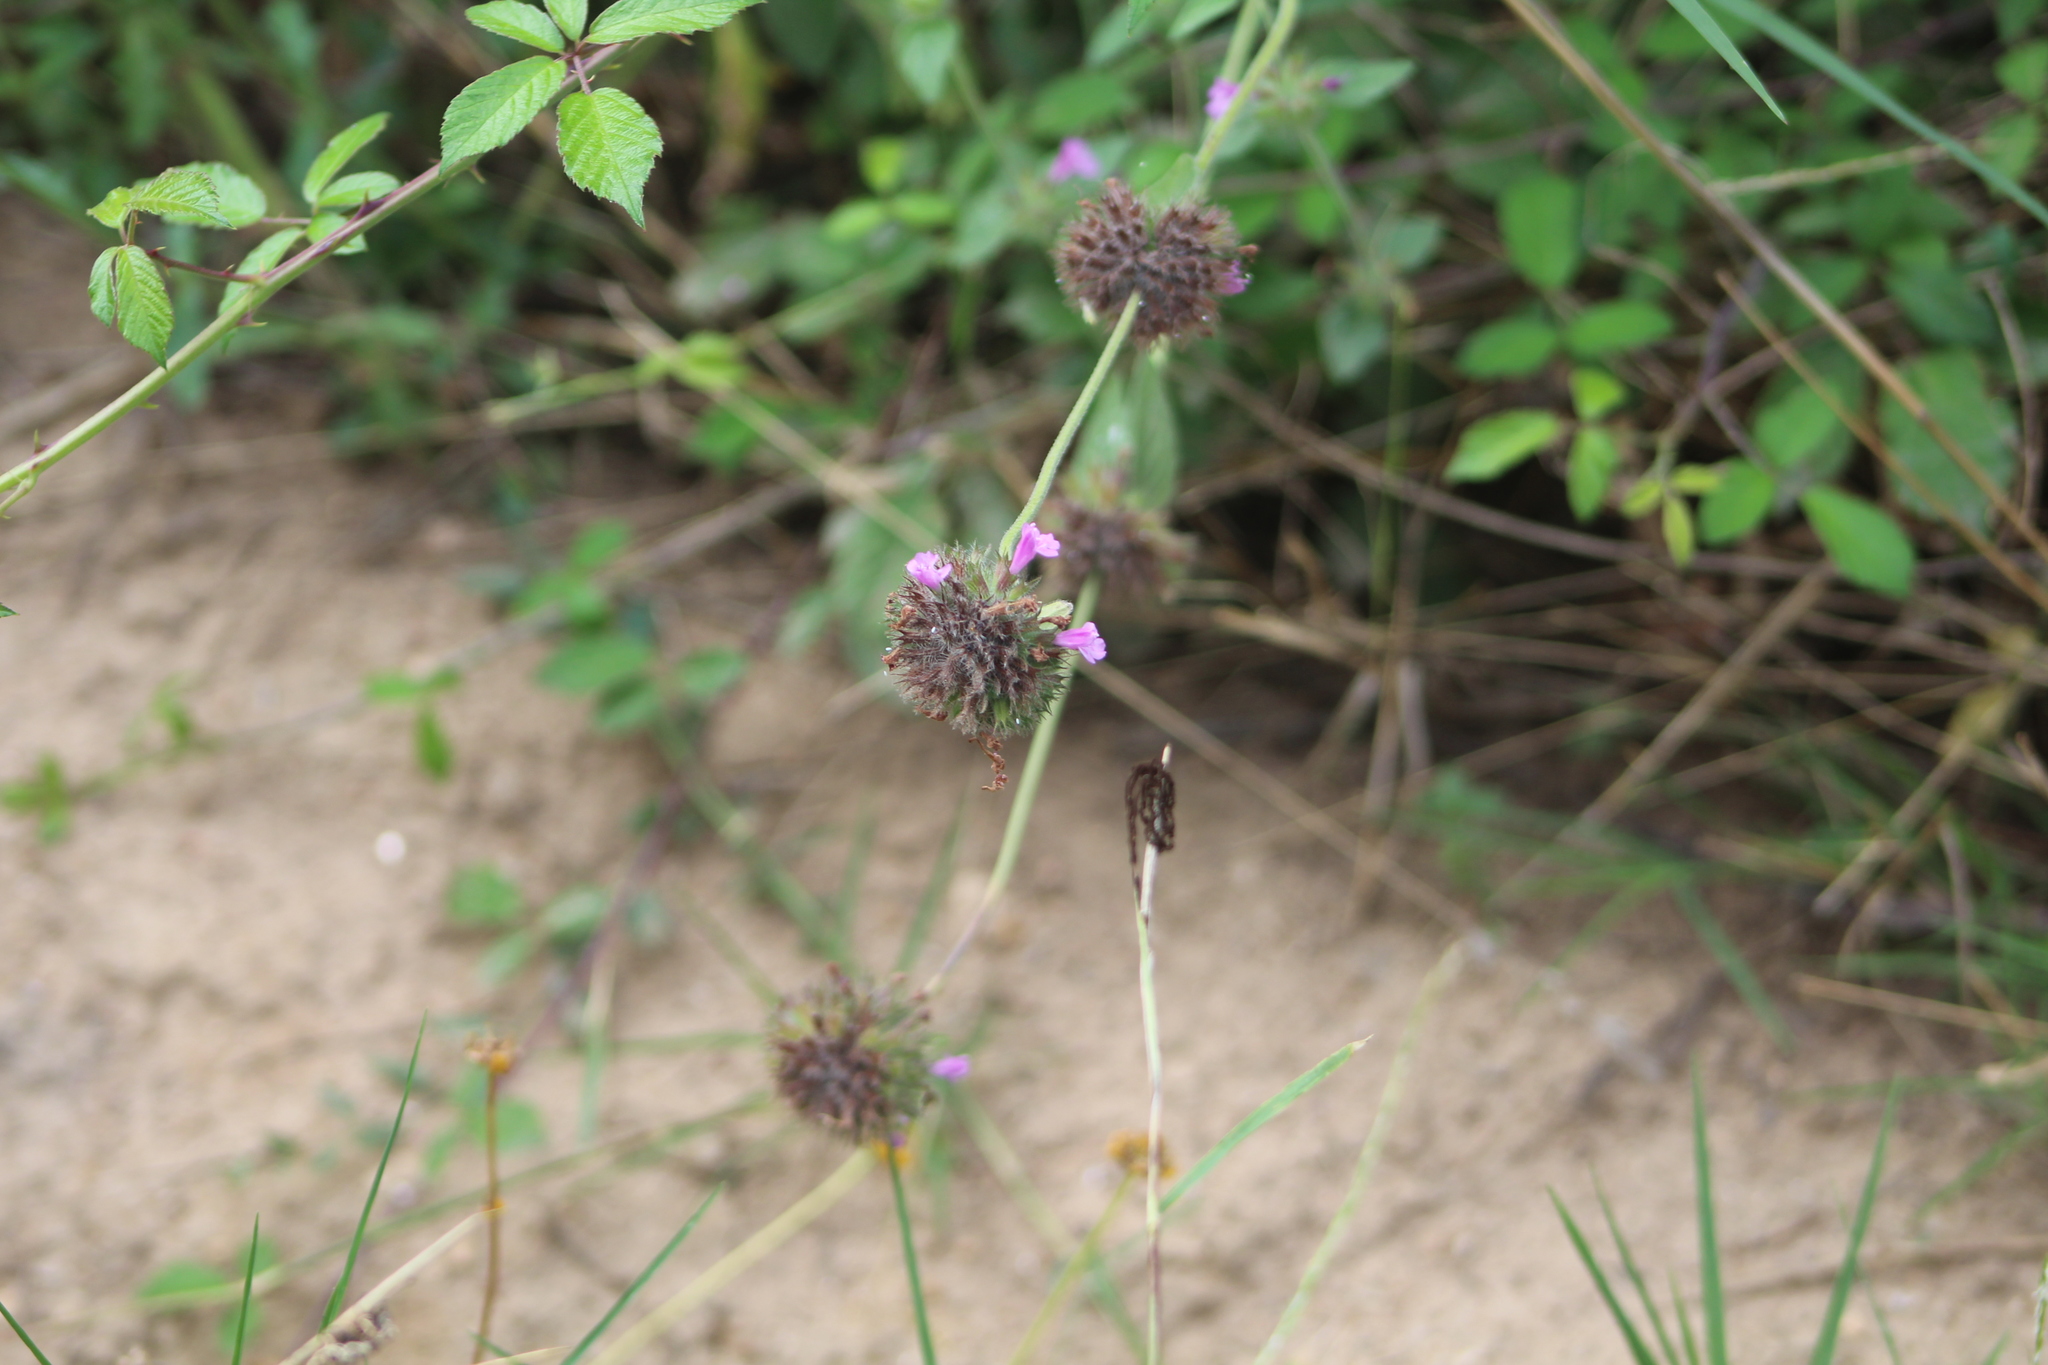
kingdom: Plantae
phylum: Tracheophyta
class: Magnoliopsida
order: Lamiales
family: Lamiaceae
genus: Clinopodium
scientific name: Clinopodium vulgare
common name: Wild basil
